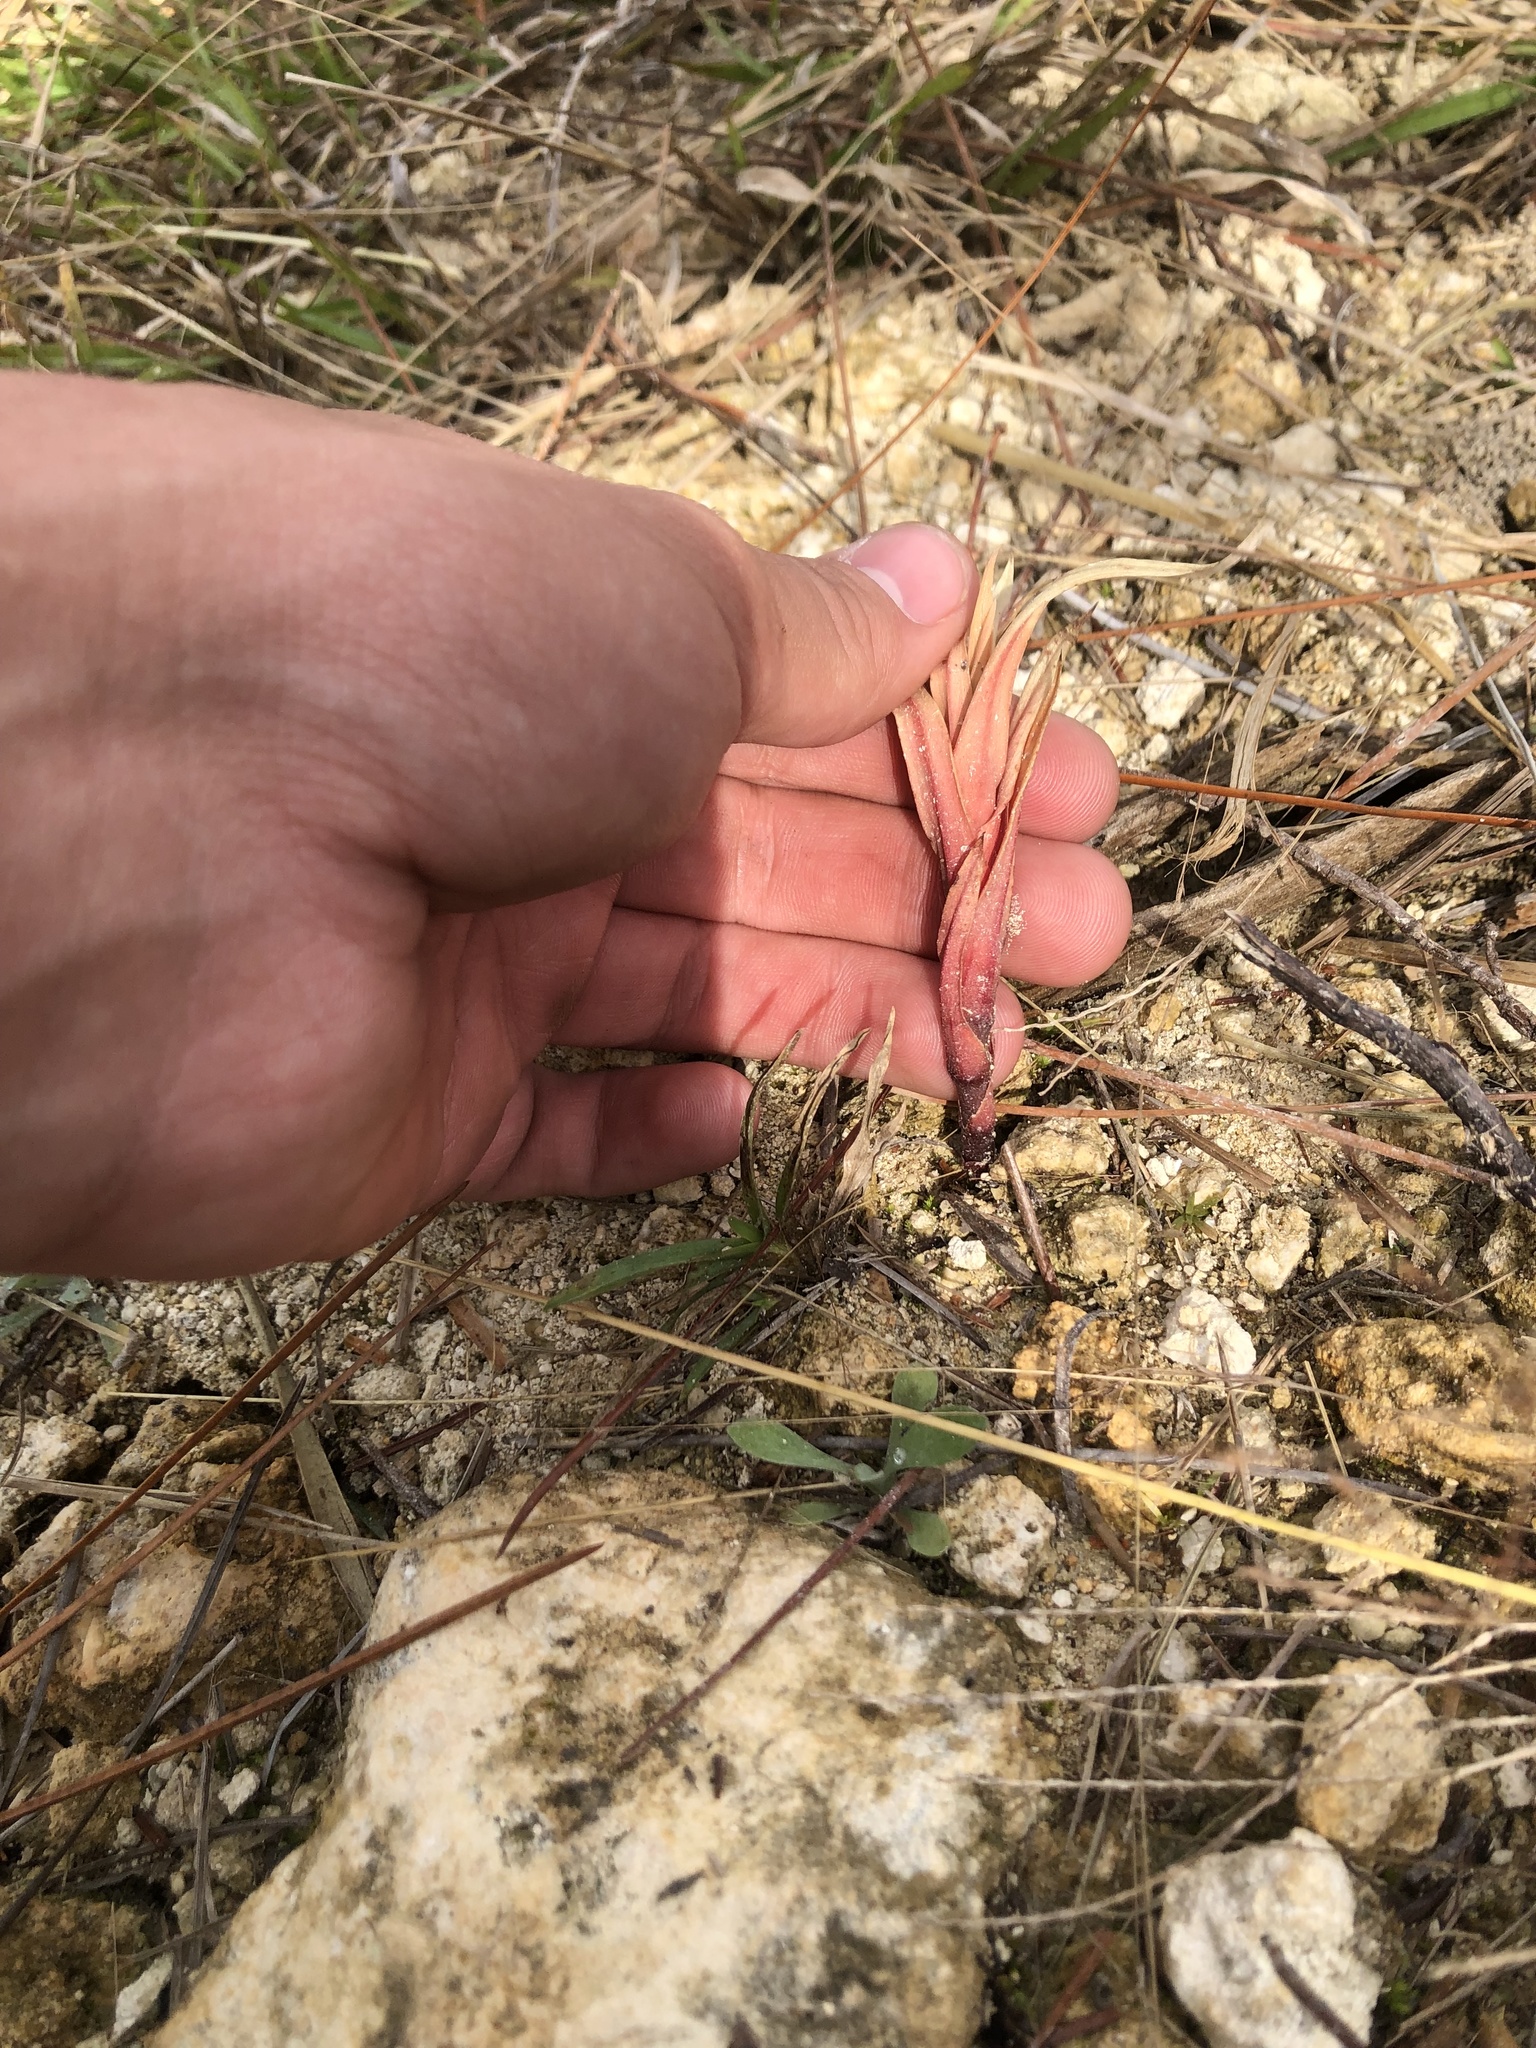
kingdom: Plantae
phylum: Tracheophyta
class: Liliopsida
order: Asparagales
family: Orchidaceae
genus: Zeuxine
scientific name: Zeuxine strateumatica
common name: Soldier's orchid
